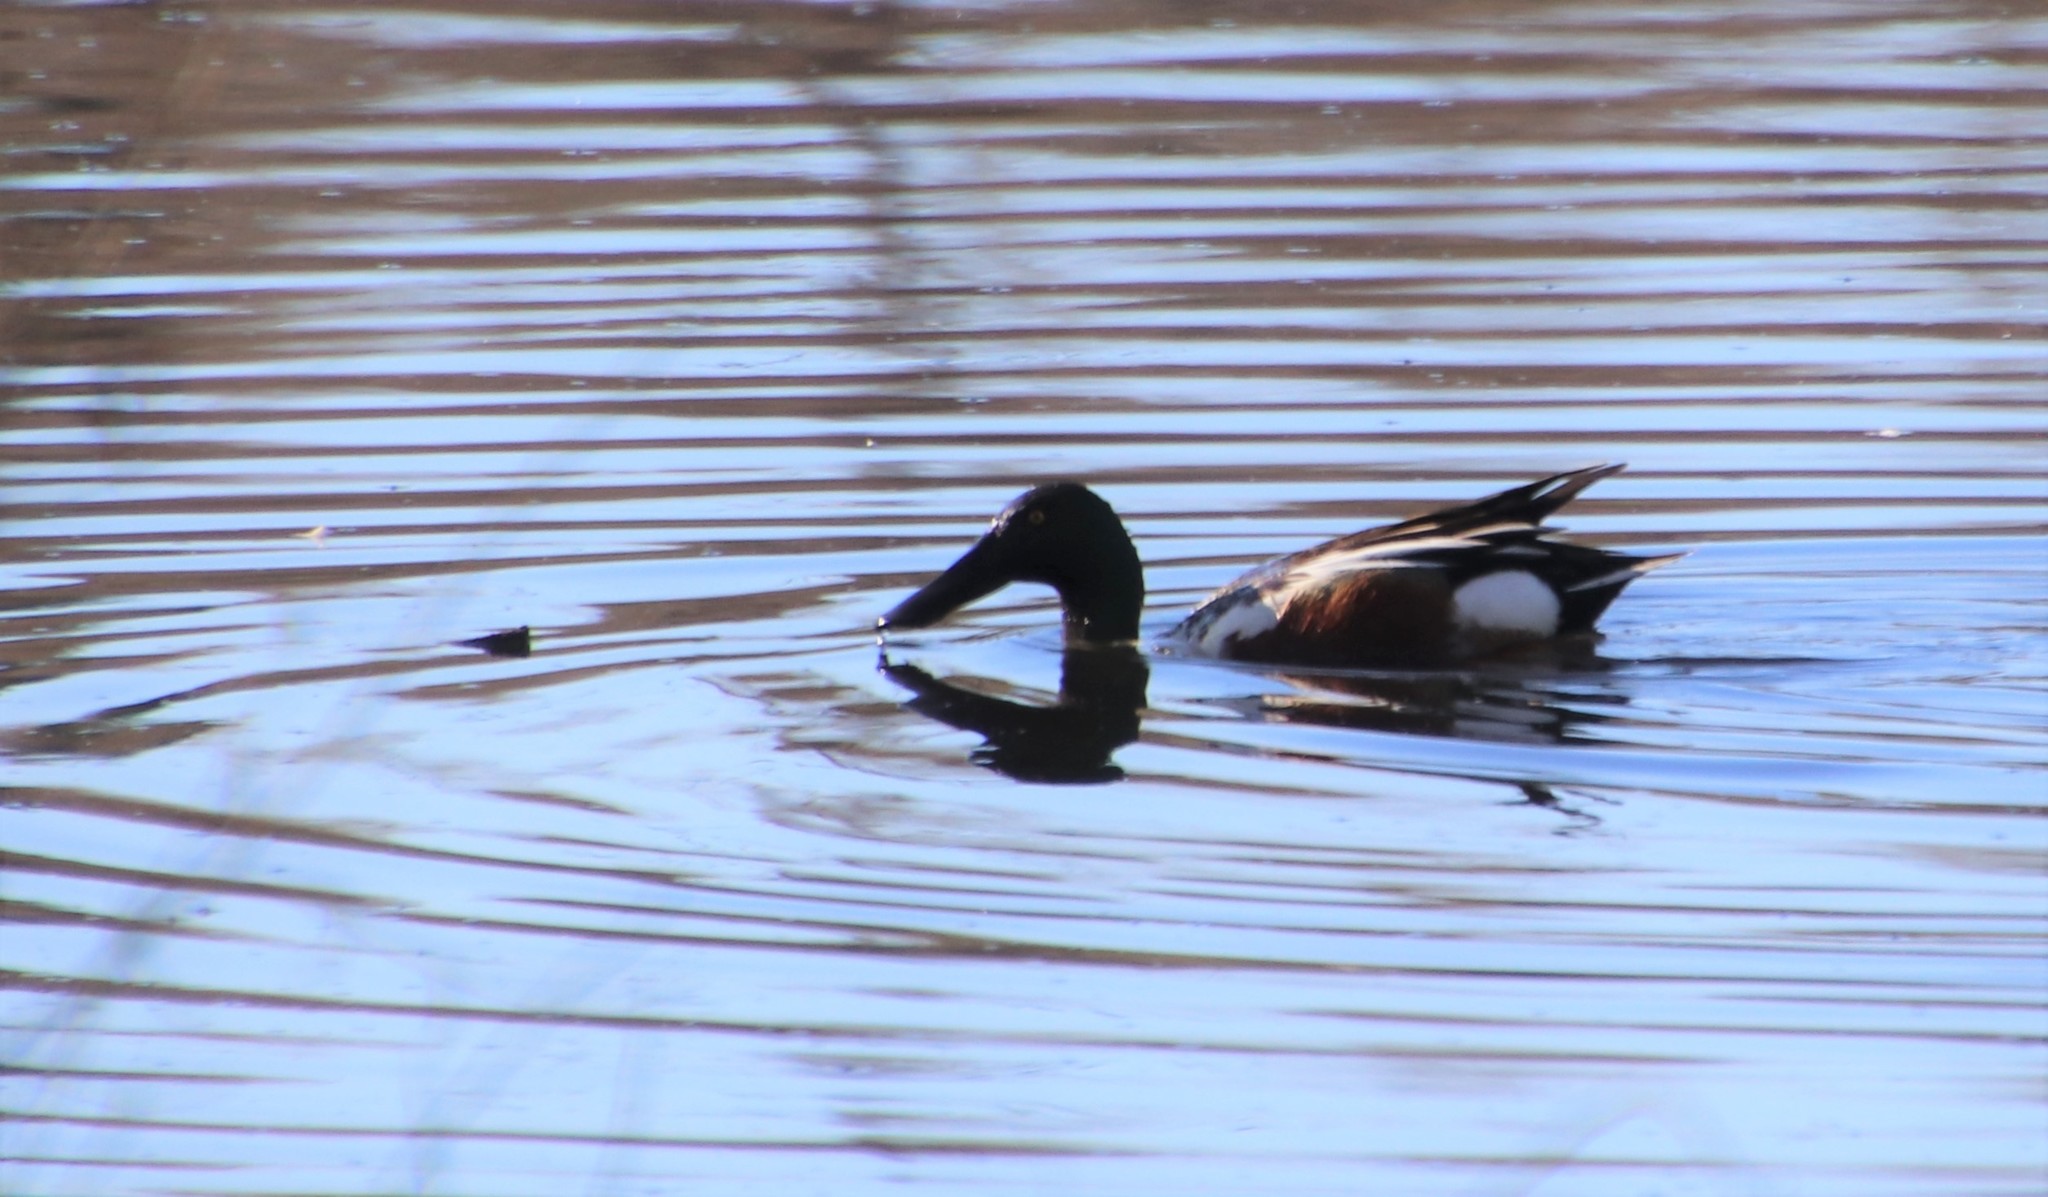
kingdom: Animalia
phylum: Chordata
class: Aves
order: Anseriformes
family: Anatidae
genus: Spatula
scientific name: Spatula clypeata
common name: Northern shoveler
